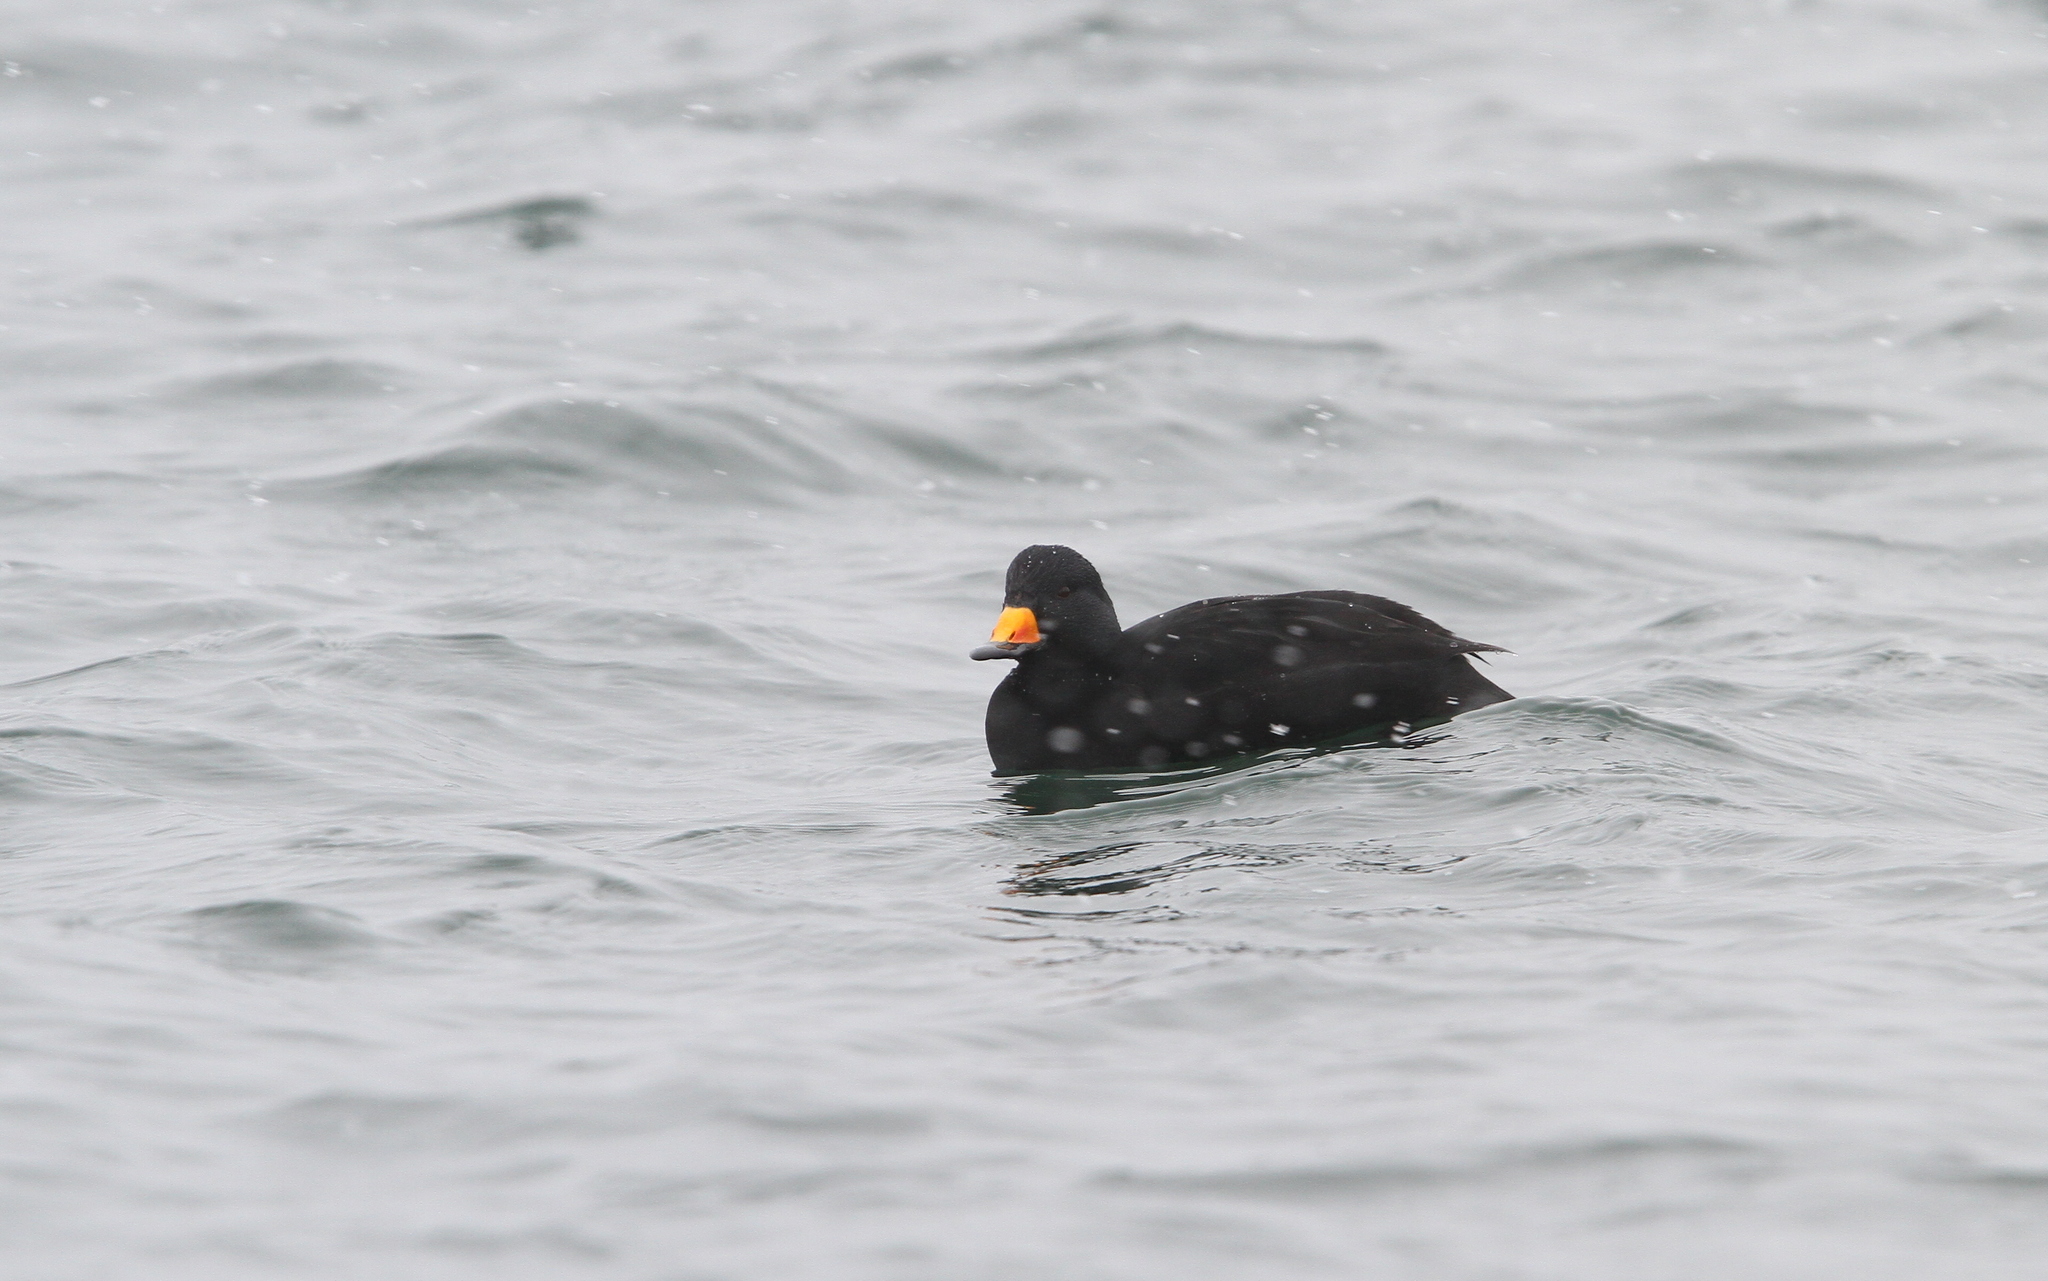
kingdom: Animalia
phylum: Chordata
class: Aves
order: Anseriformes
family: Anatidae
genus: Melanitta
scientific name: Melanitta americana
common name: Black scoter
